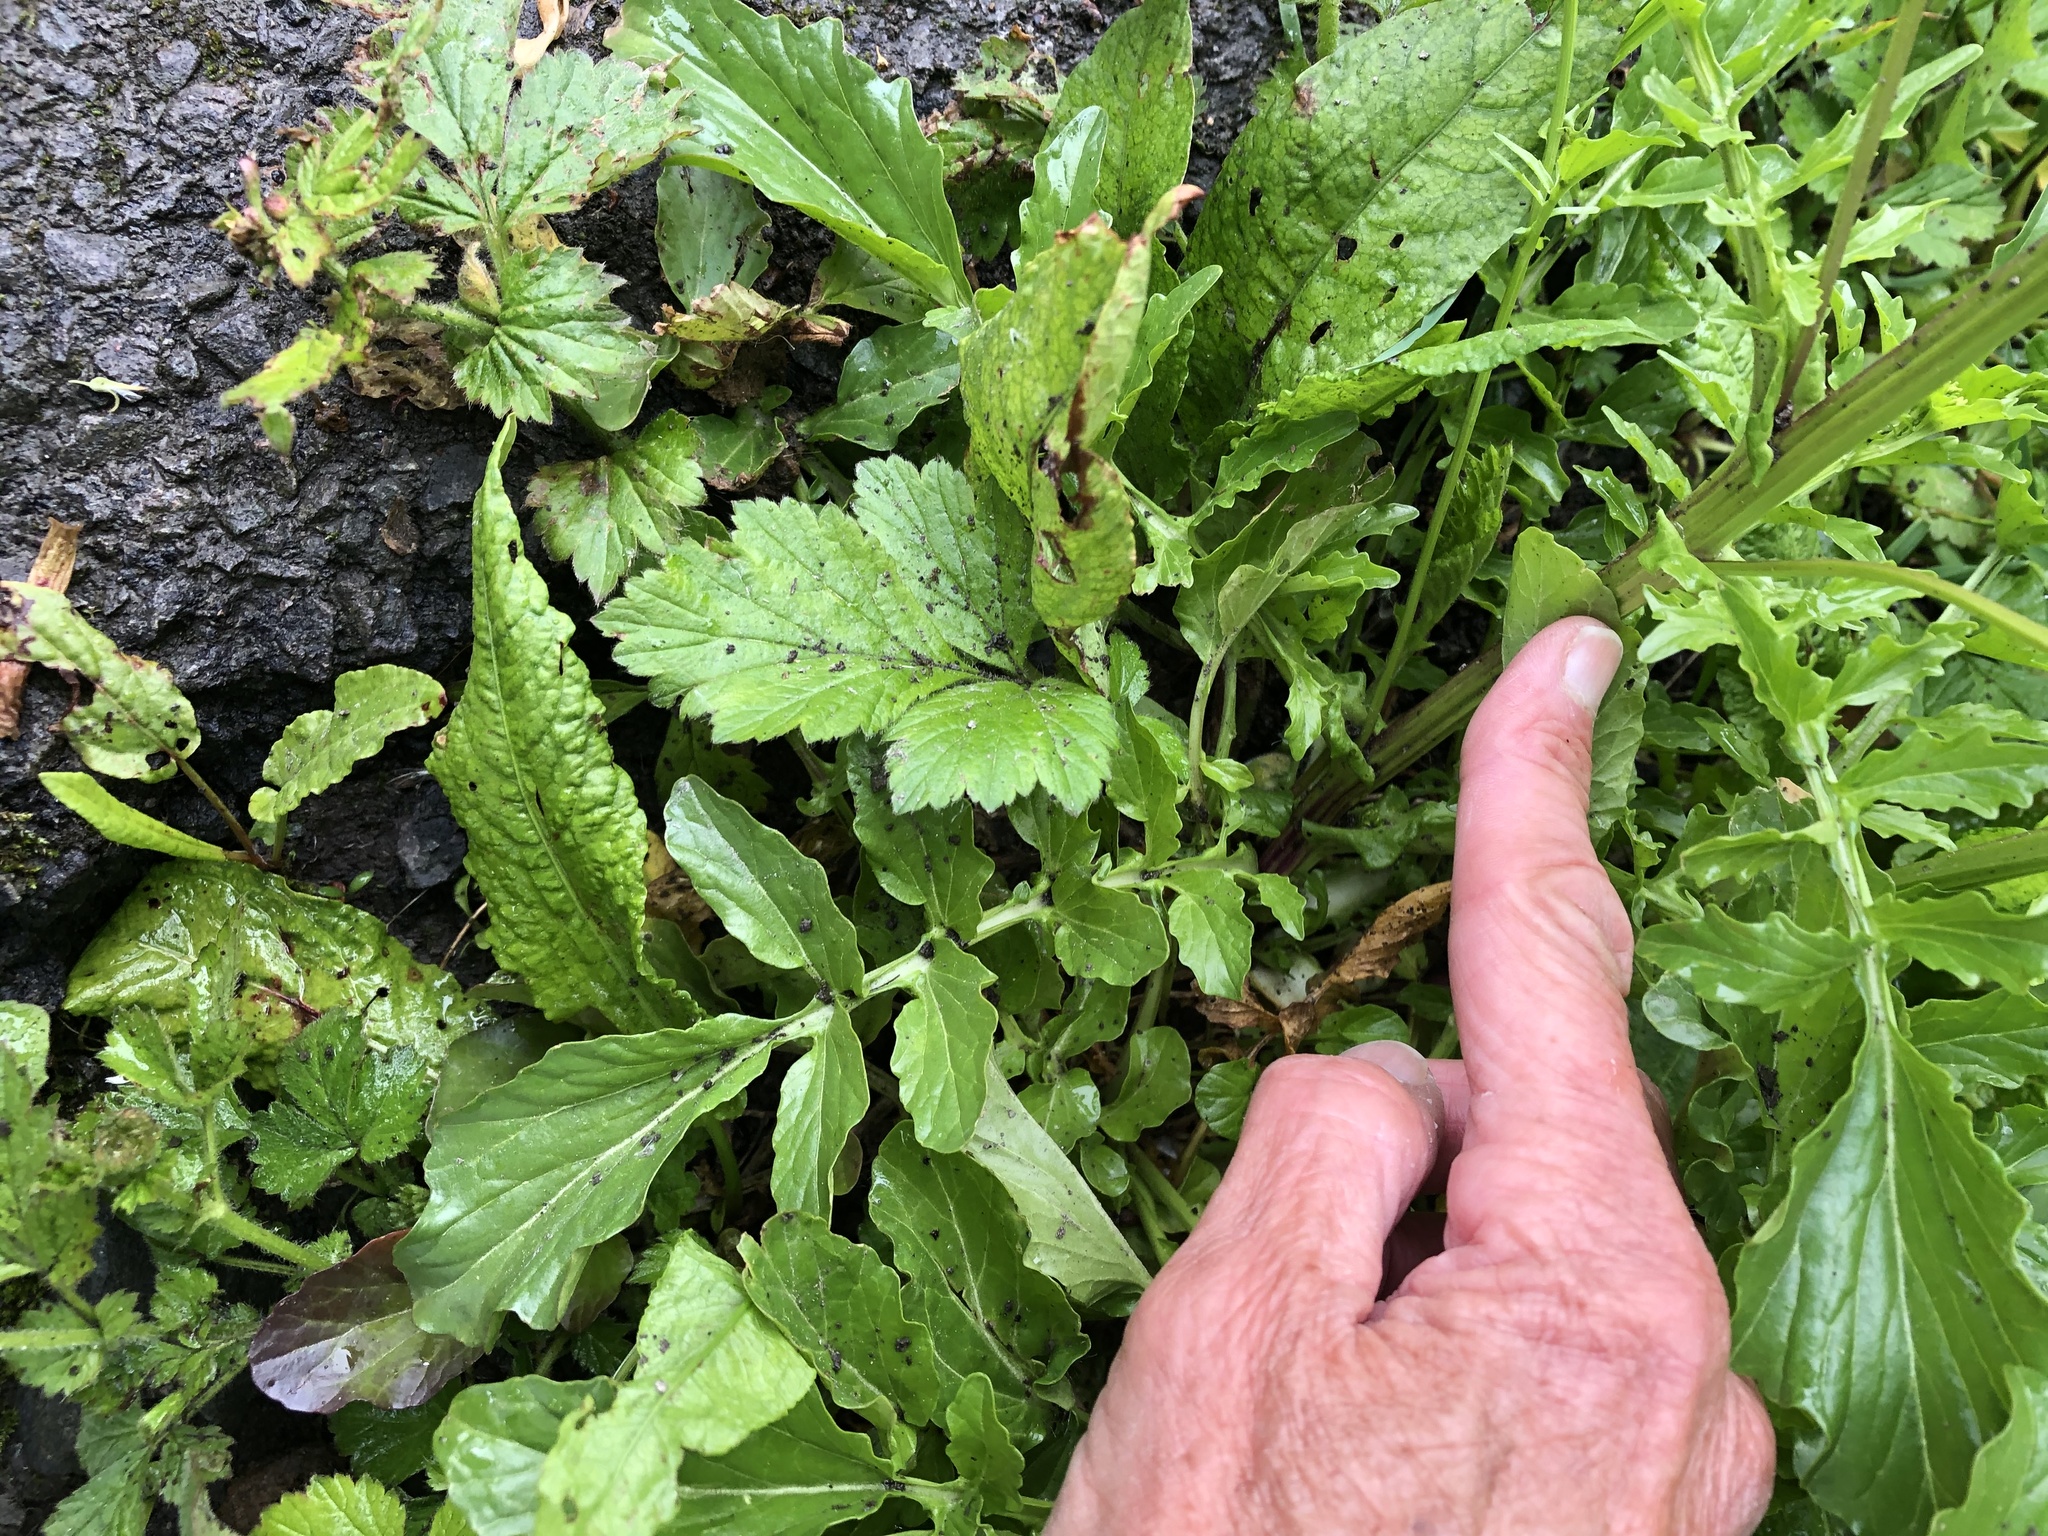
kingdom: Plantae
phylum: Tracheophyta
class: Magnoliopsida
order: Brassicales
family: Brassicaceae
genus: Barbarea
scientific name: Barbarea vulgaris
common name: Cressy-greens
